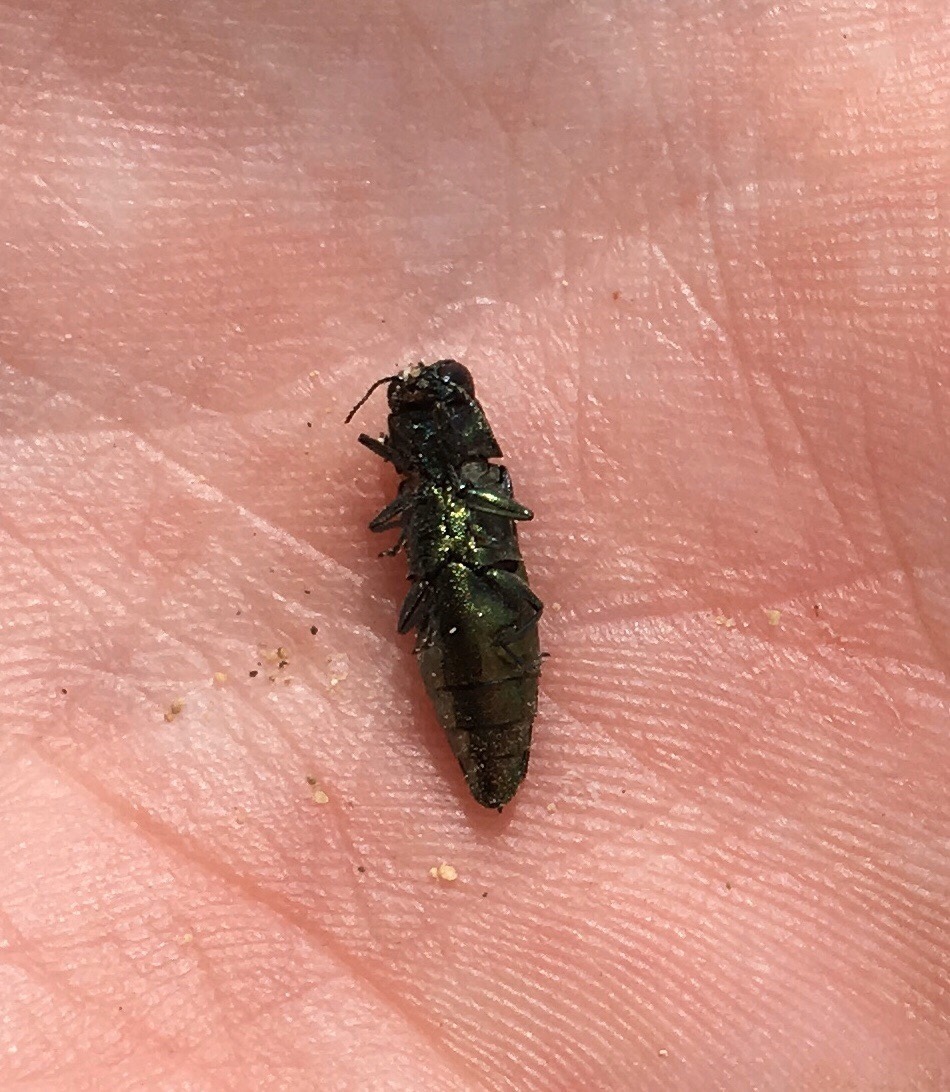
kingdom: Animalia
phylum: Arthropoda
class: Insecta
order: Coleoptera
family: Buprestidae
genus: Agrilus
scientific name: Agrilus planipennis
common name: Emerald ash borer
